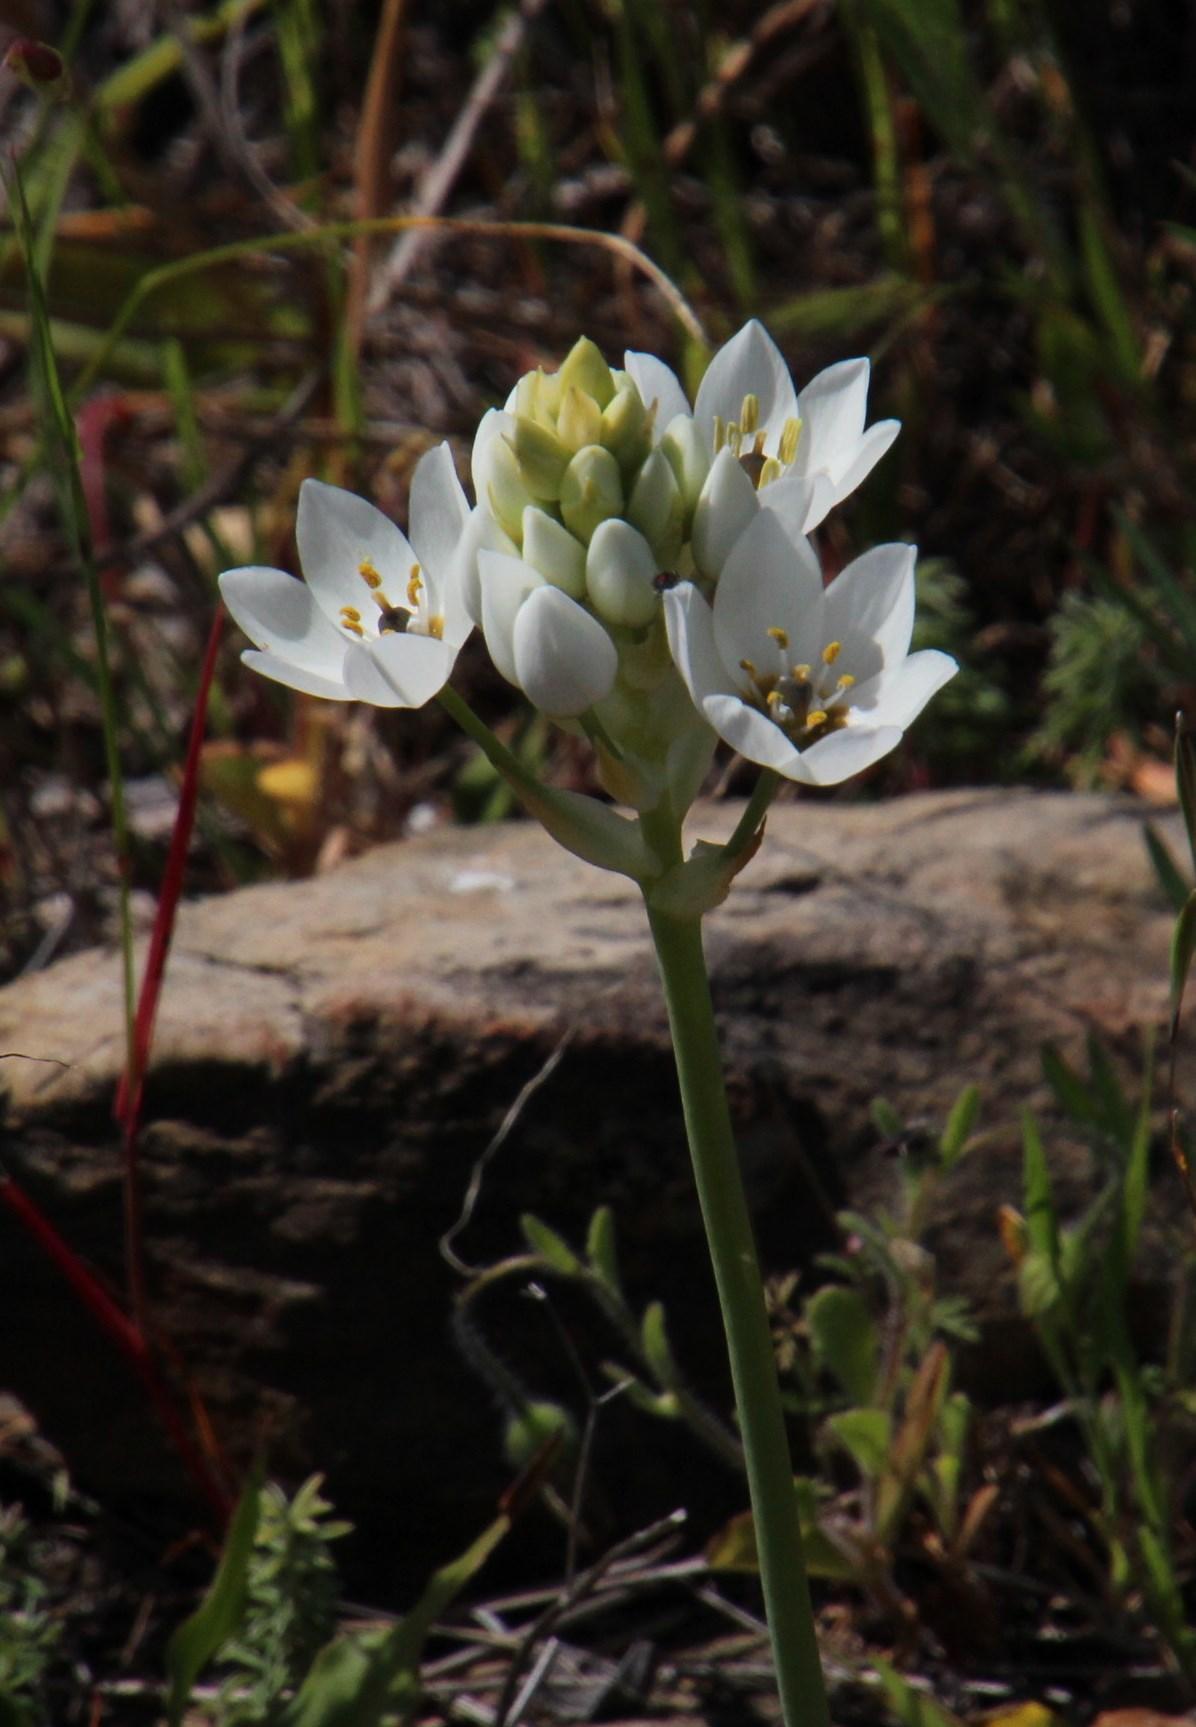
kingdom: Plantae
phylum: Tracheophyta
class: Liliopsida
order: Asparagales
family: Asparagaceae
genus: Ornithogalum
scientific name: Ornithogalum thyrsoides
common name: Chincherinchee
